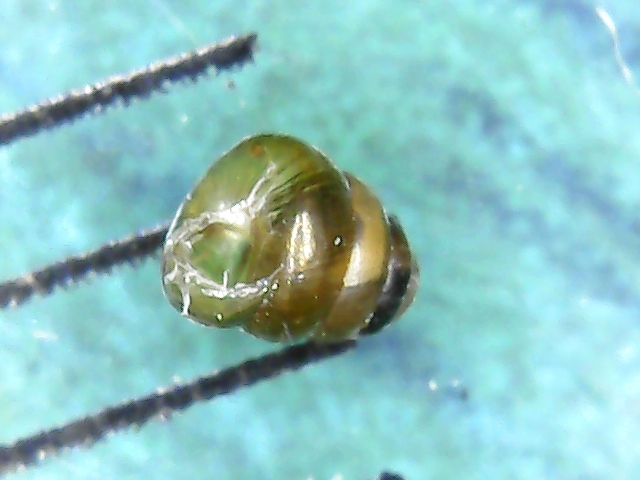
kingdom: Animalia
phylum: Mollusca
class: Gastropoda
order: Stylommatophora
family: Truncatellinidae
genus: Columella
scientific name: Columella edentula
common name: Toothless chrysalis snail
